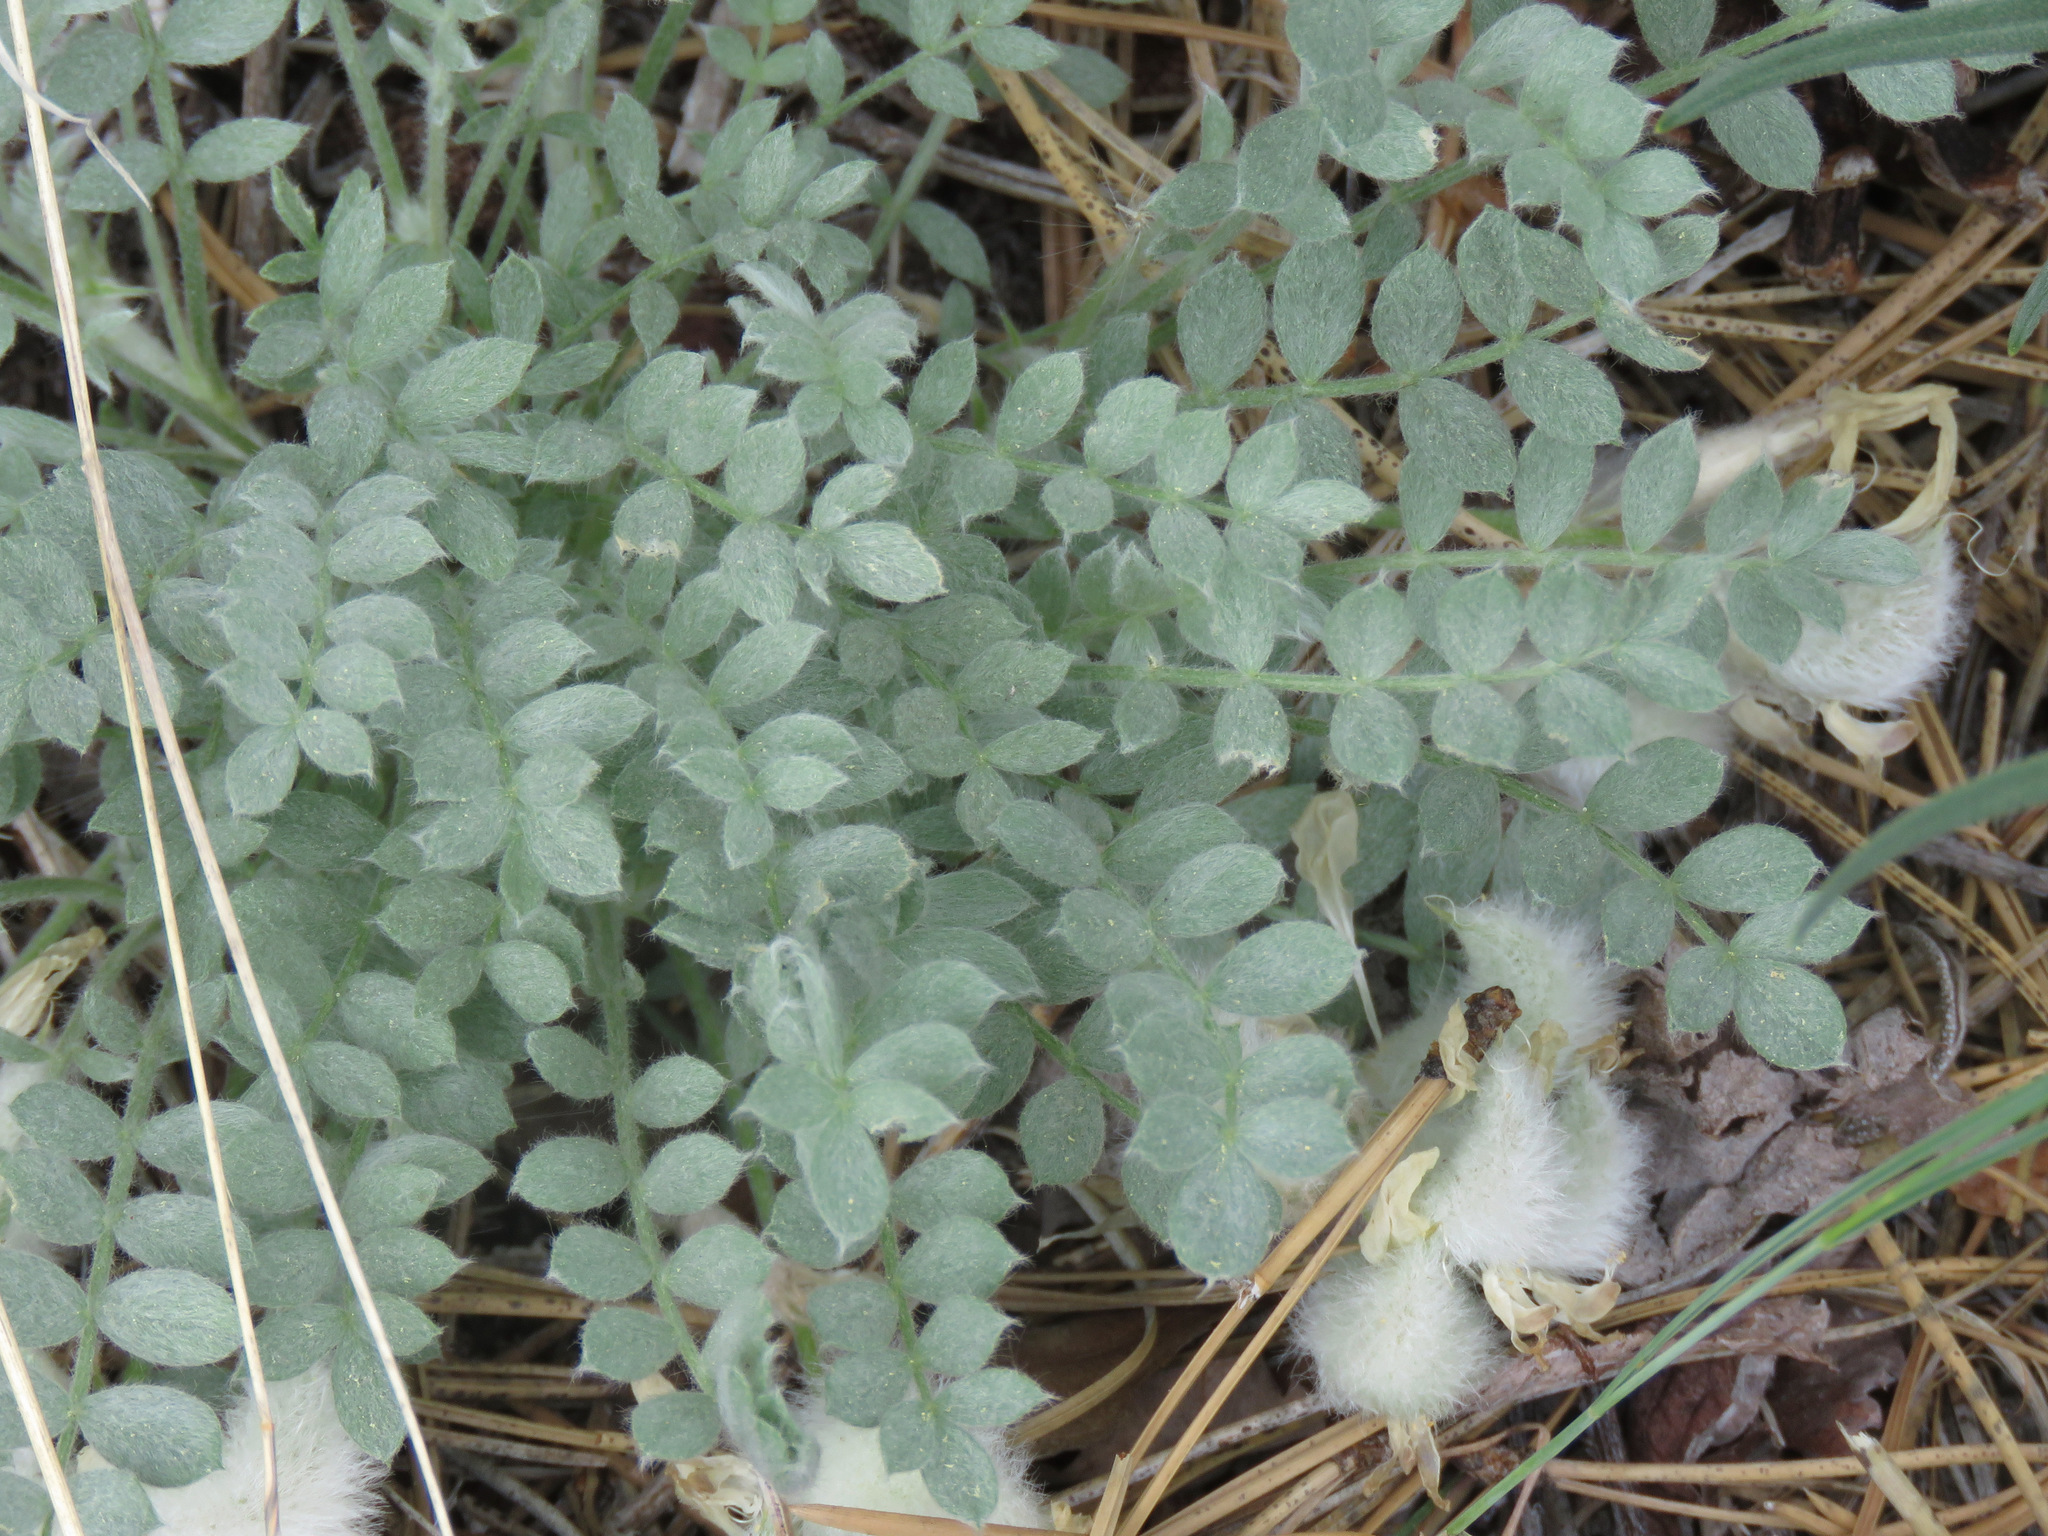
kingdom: Plantae
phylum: Tracheophyta
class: Magnoliopsida
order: Fabales
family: Fabaceae
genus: Astragalus
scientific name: Astragalus purshii
